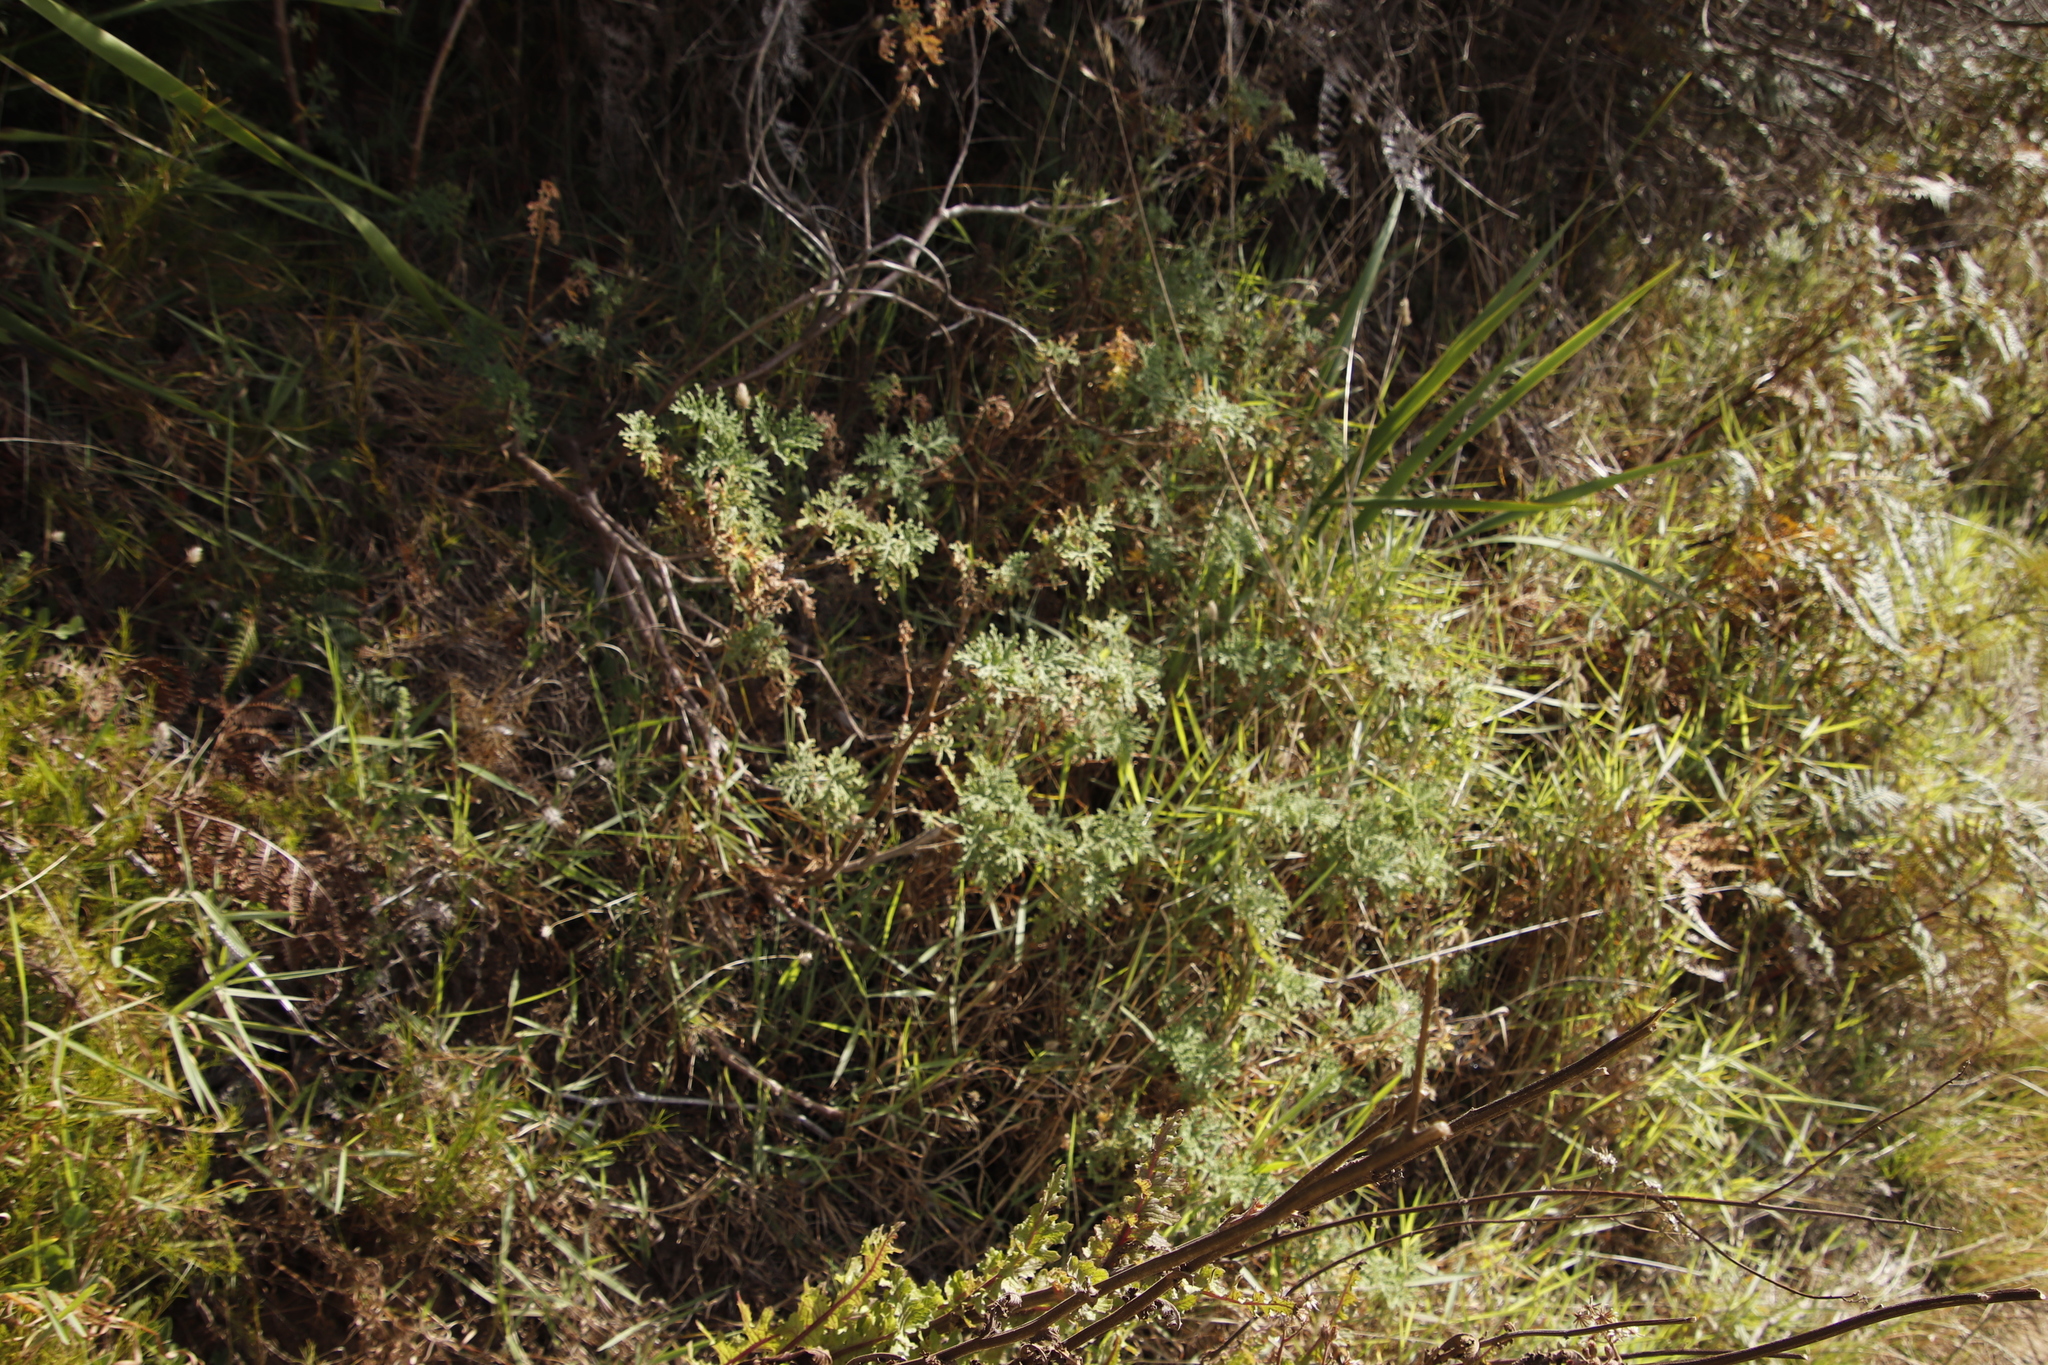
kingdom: Plantae
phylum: Tracheophyta
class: Magnoliopsida
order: Geraniales
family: Geraniaceae
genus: Pelargonium
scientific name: Pelargonium radens
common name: Rasp-leaf pelargonium
